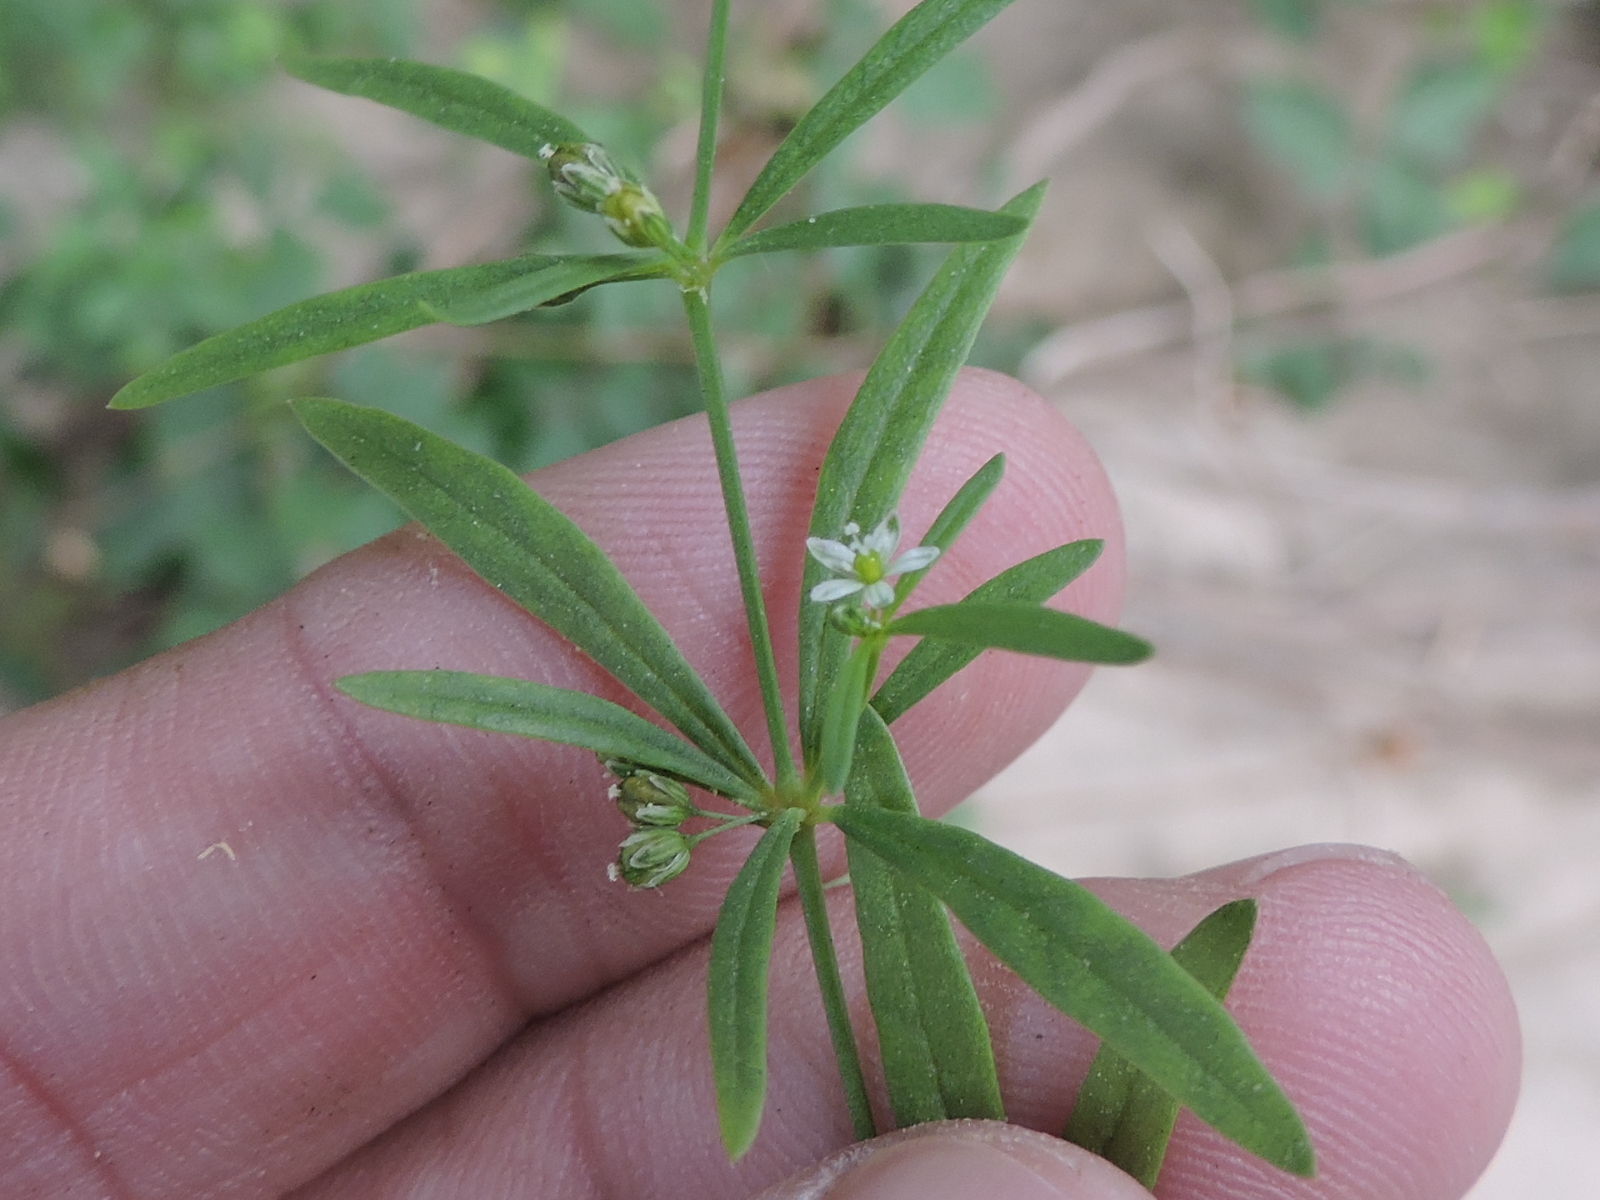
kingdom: Plantae
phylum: Tracheophyta
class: Magnoliopsida
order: Caryophyllales
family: Molluginaceae
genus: Mollugo
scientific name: Mollugo verticillata
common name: Green carpetweed
